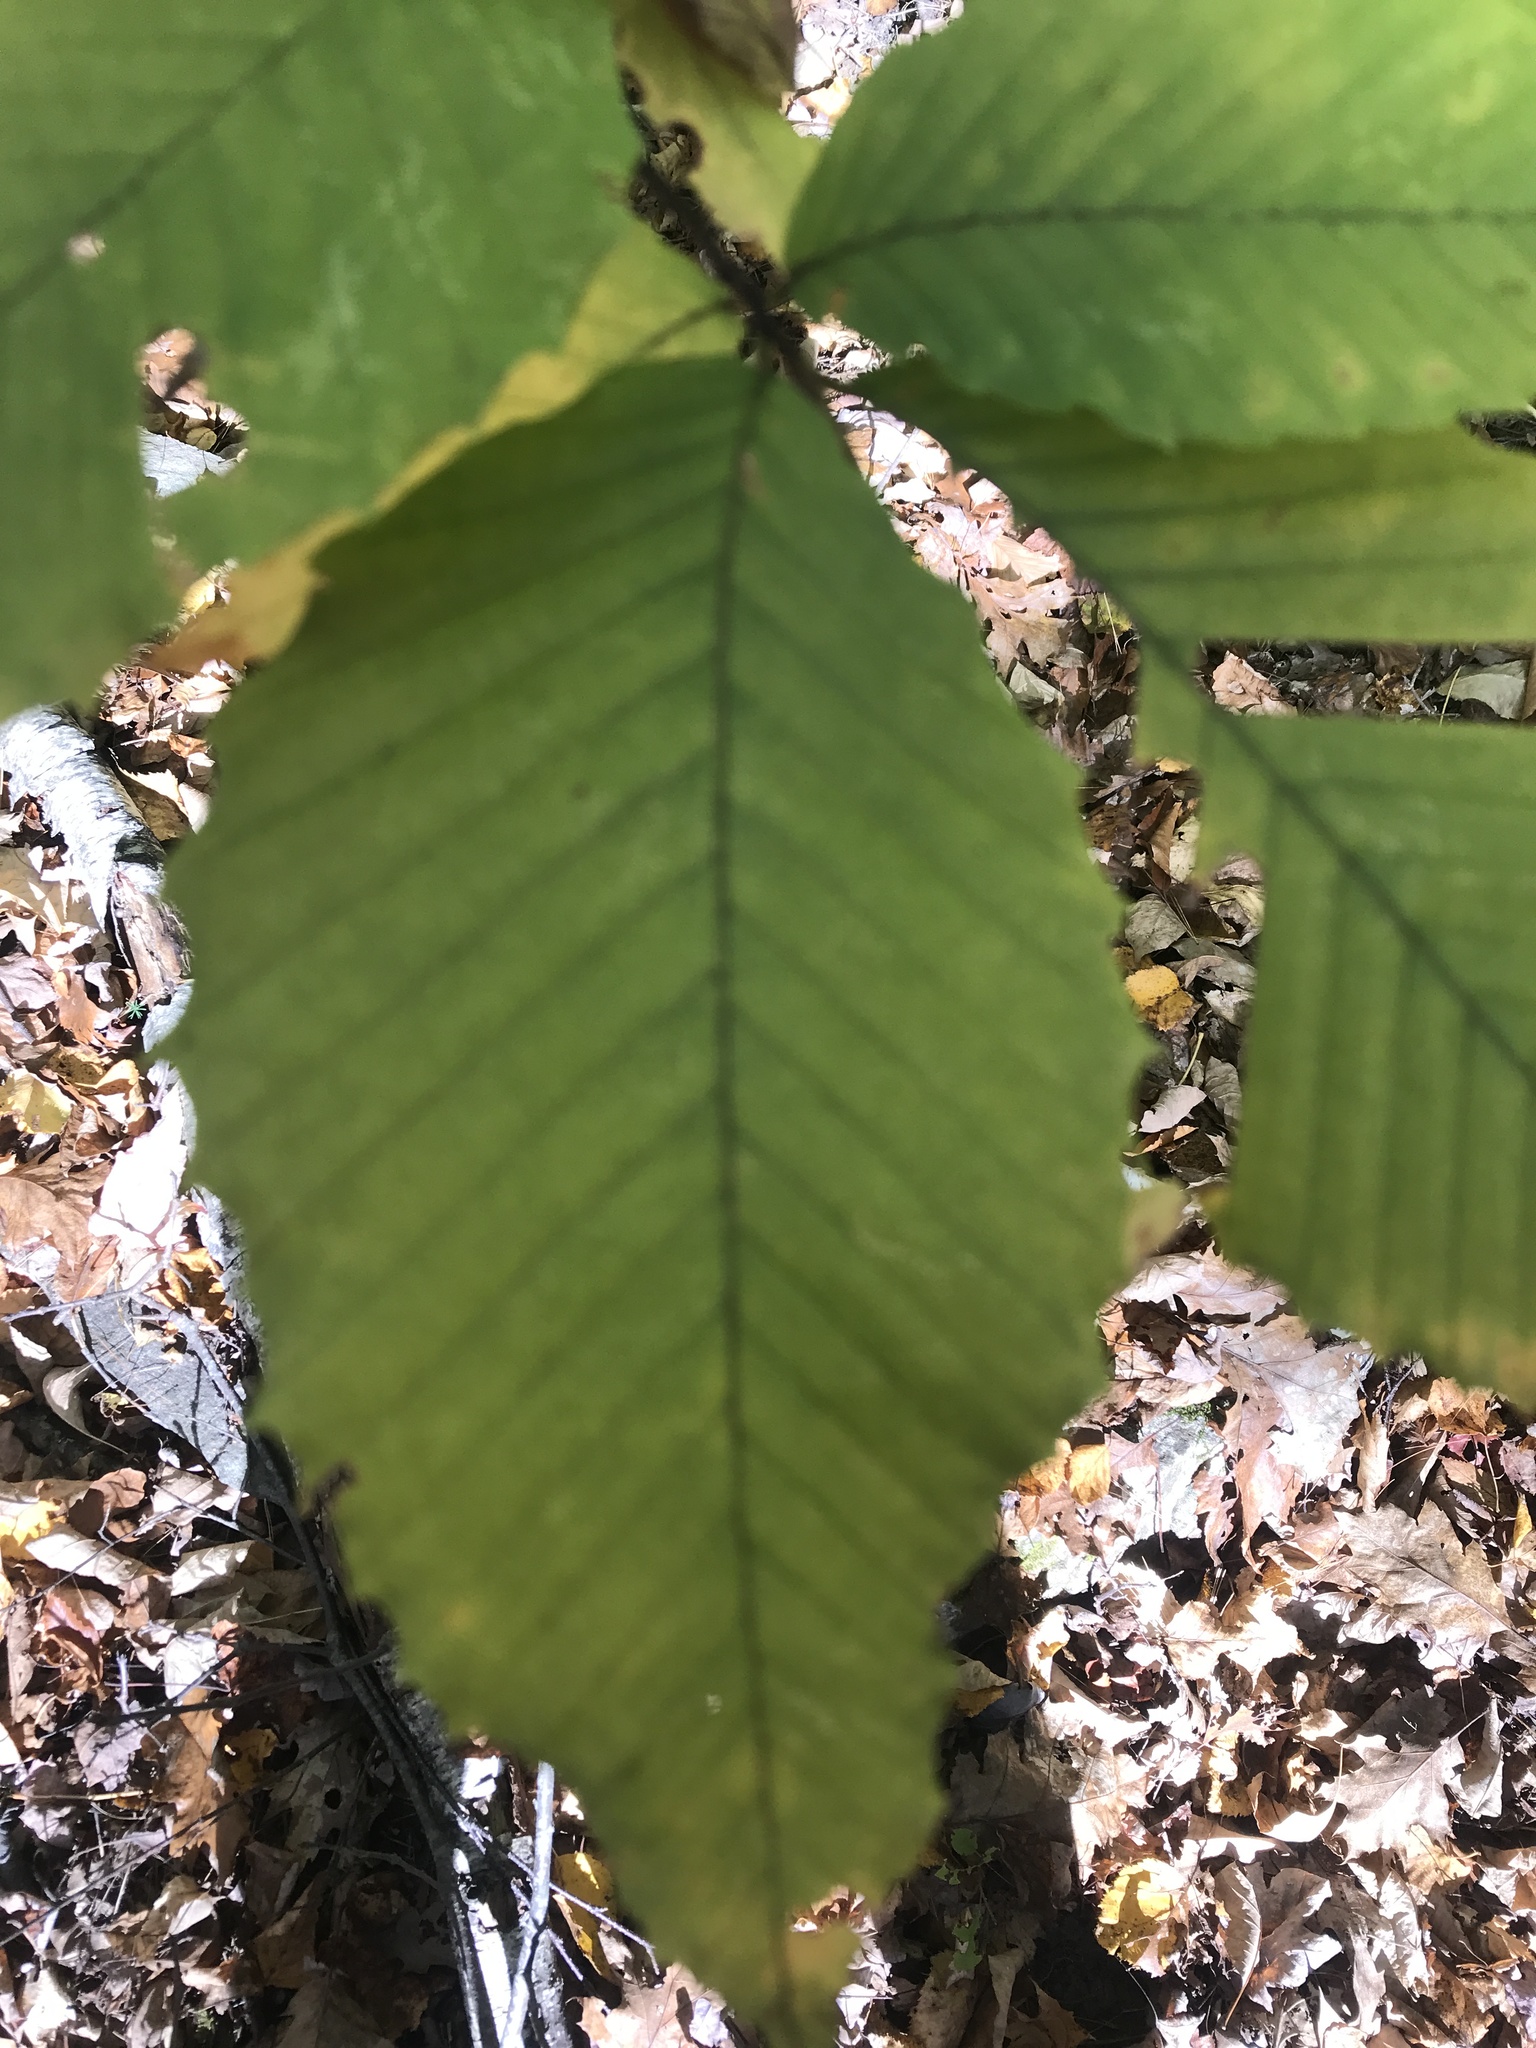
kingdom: Plantae
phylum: Tracheophyta
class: Magnoliopsida
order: Fagales
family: Fagaceae
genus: Fagus
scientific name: Fagus grandifolia
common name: American beech
